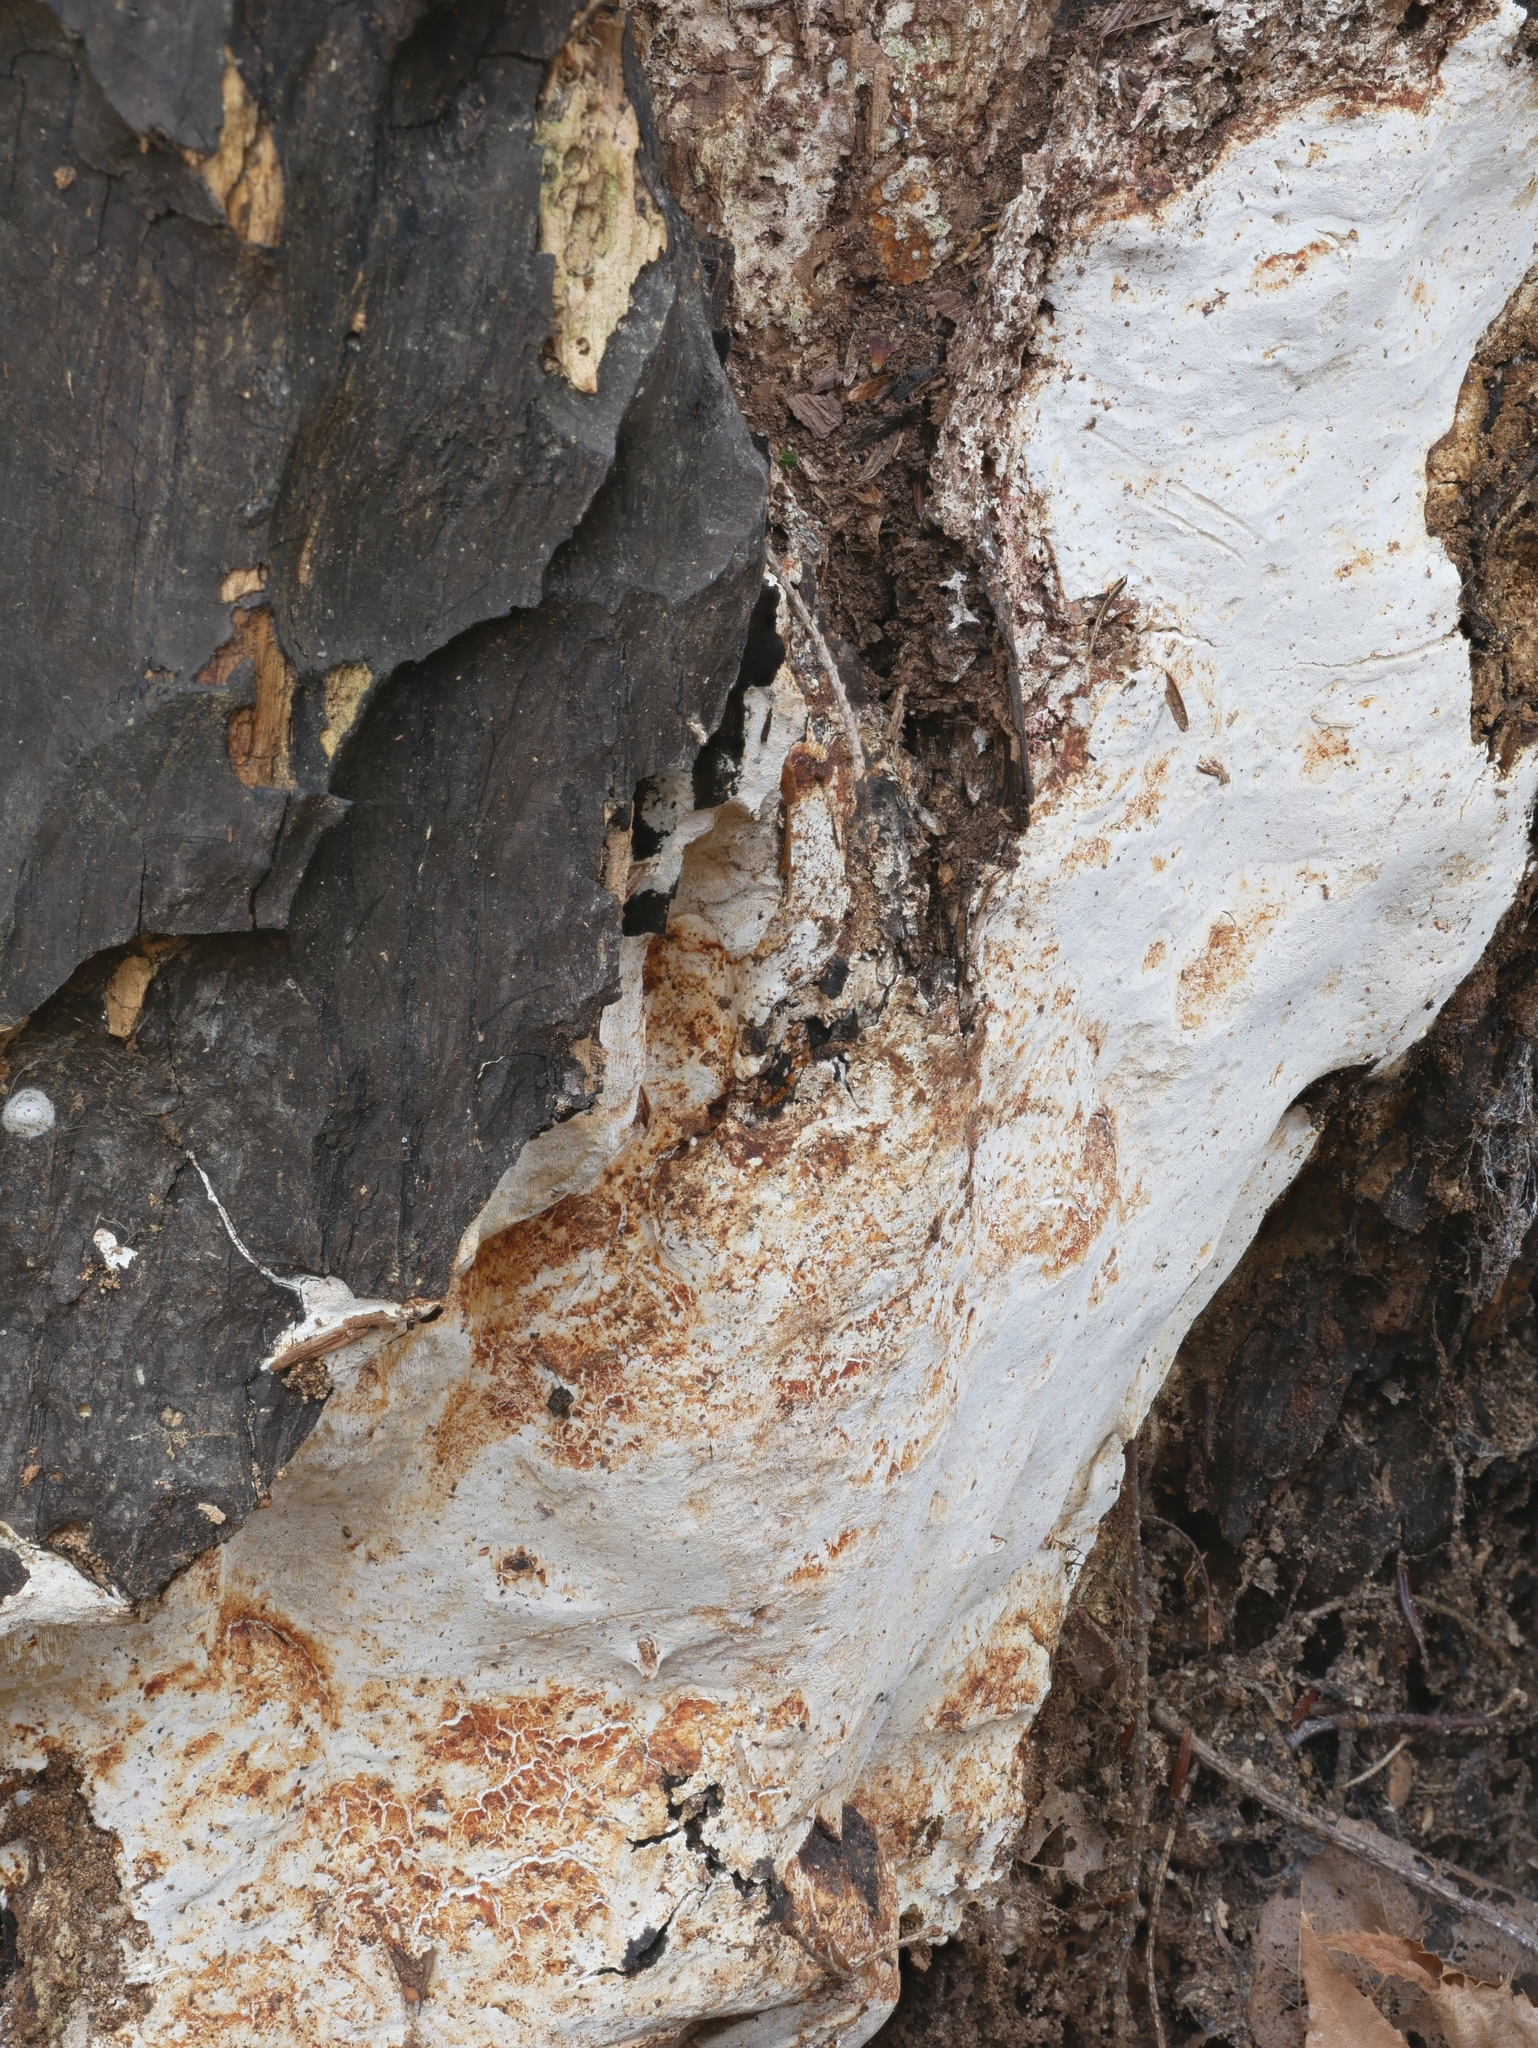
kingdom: Fungi
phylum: Basidiomycota
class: Agaricomycetes
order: Polyporales
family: Fomitopsidaceae
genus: Fomitopsis
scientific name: Fomitopsis
